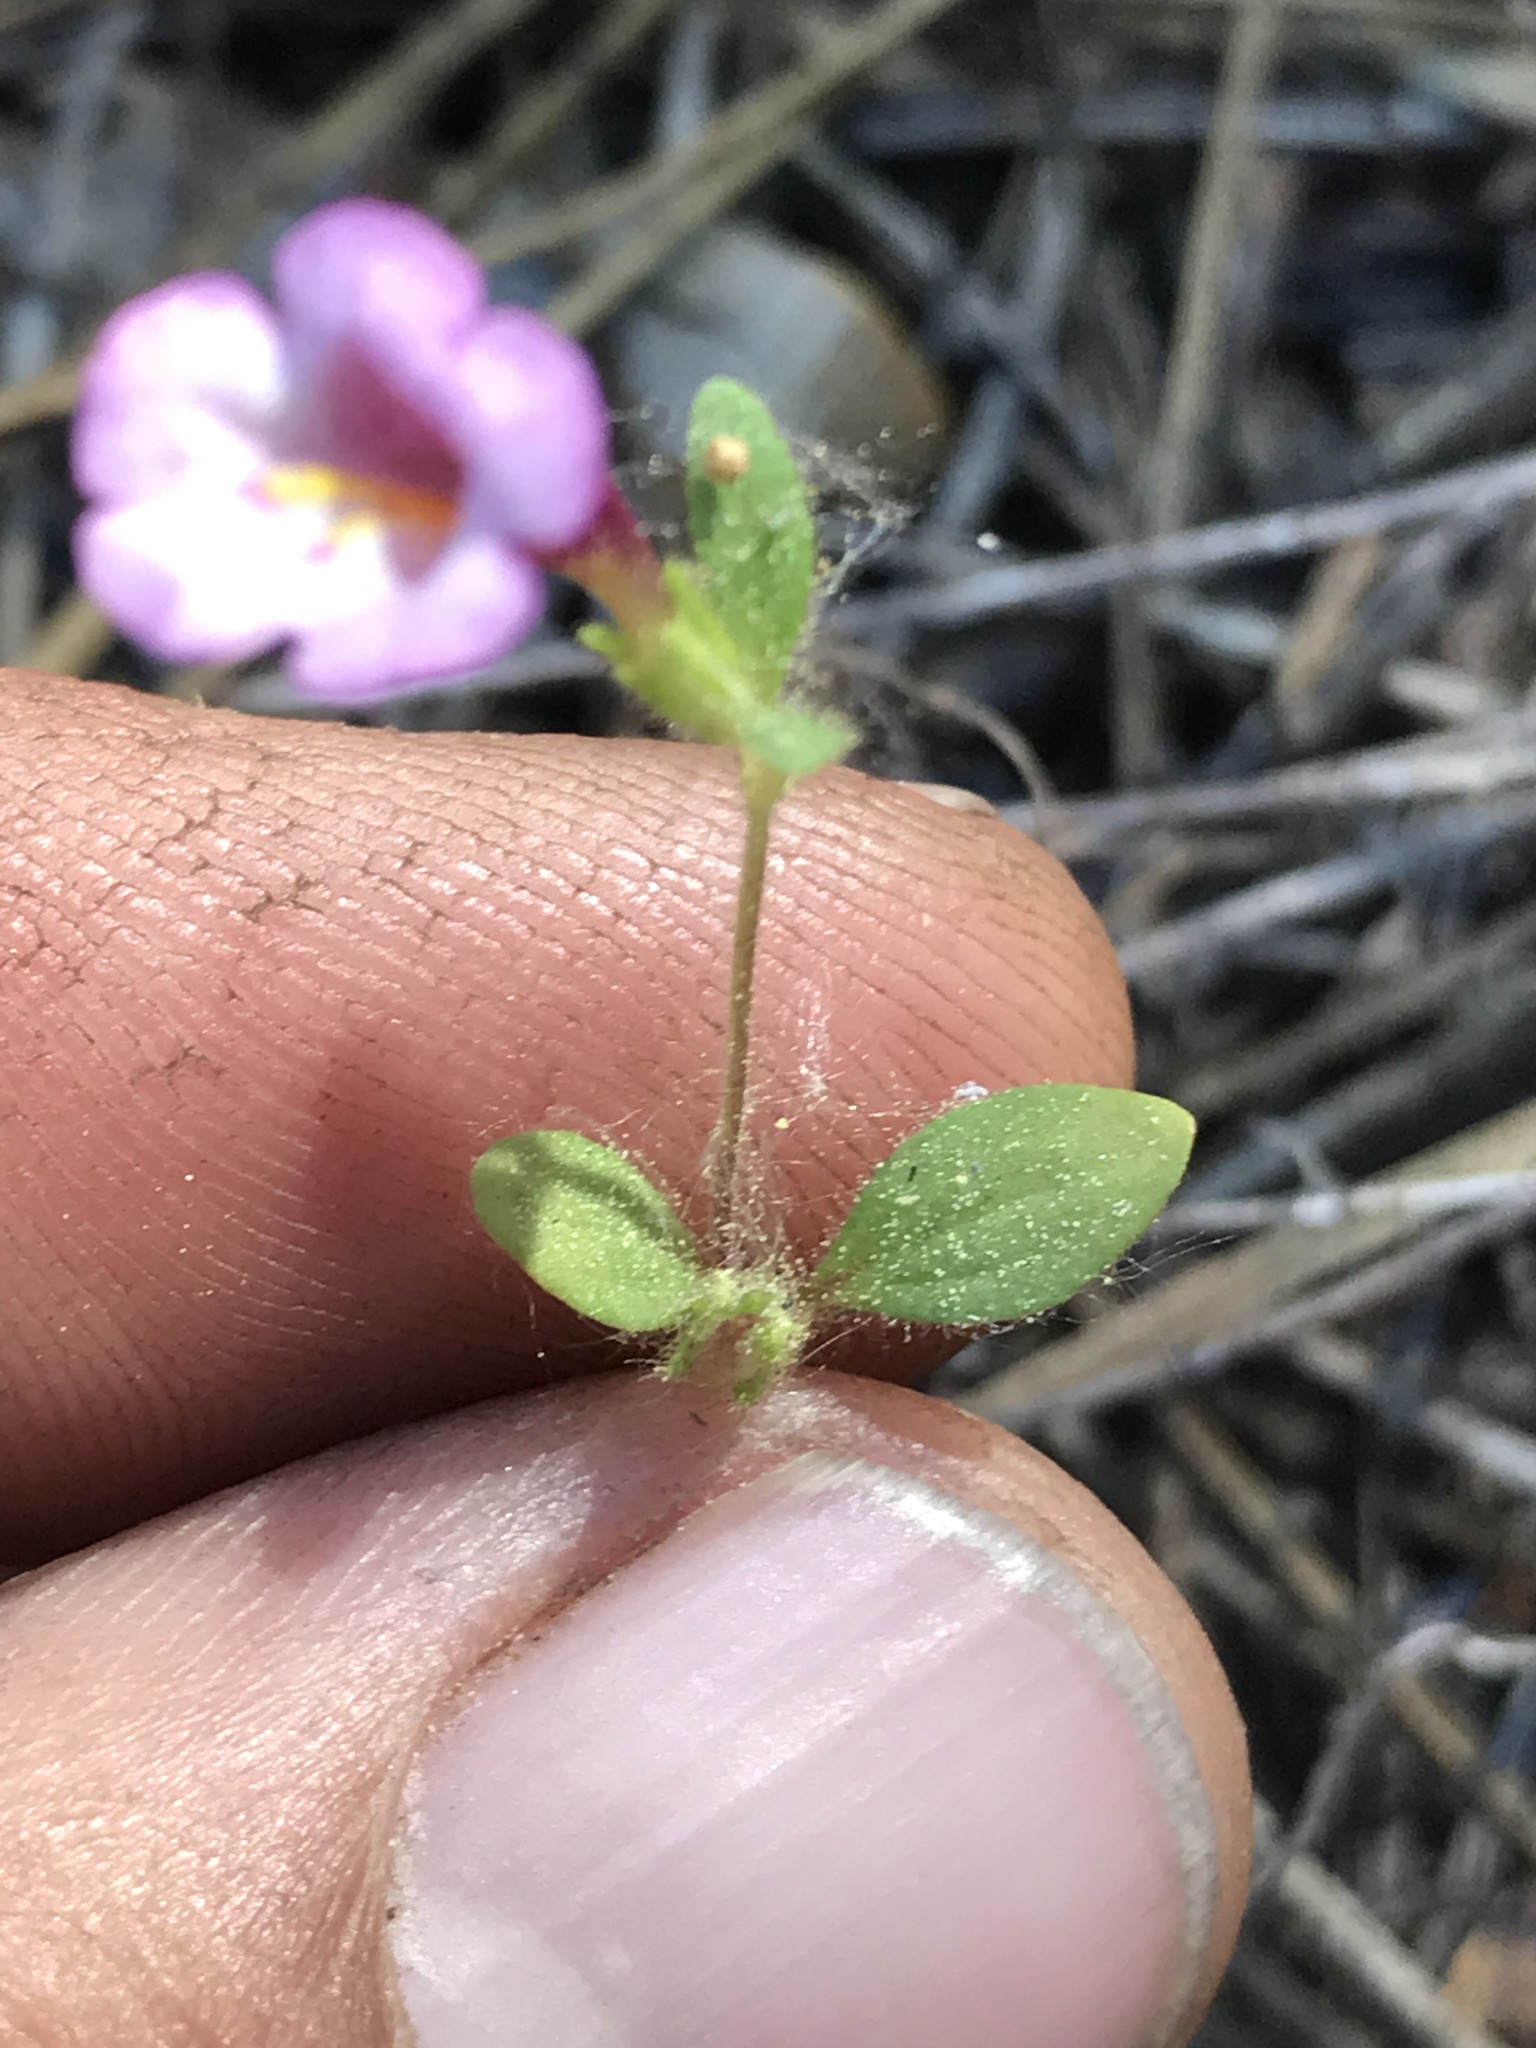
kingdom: Plantae
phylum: Tracheophyta
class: Magnoliopsida
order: Lamiales
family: Phrymaceae
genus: Diplacus
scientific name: Diplacus torreyi
